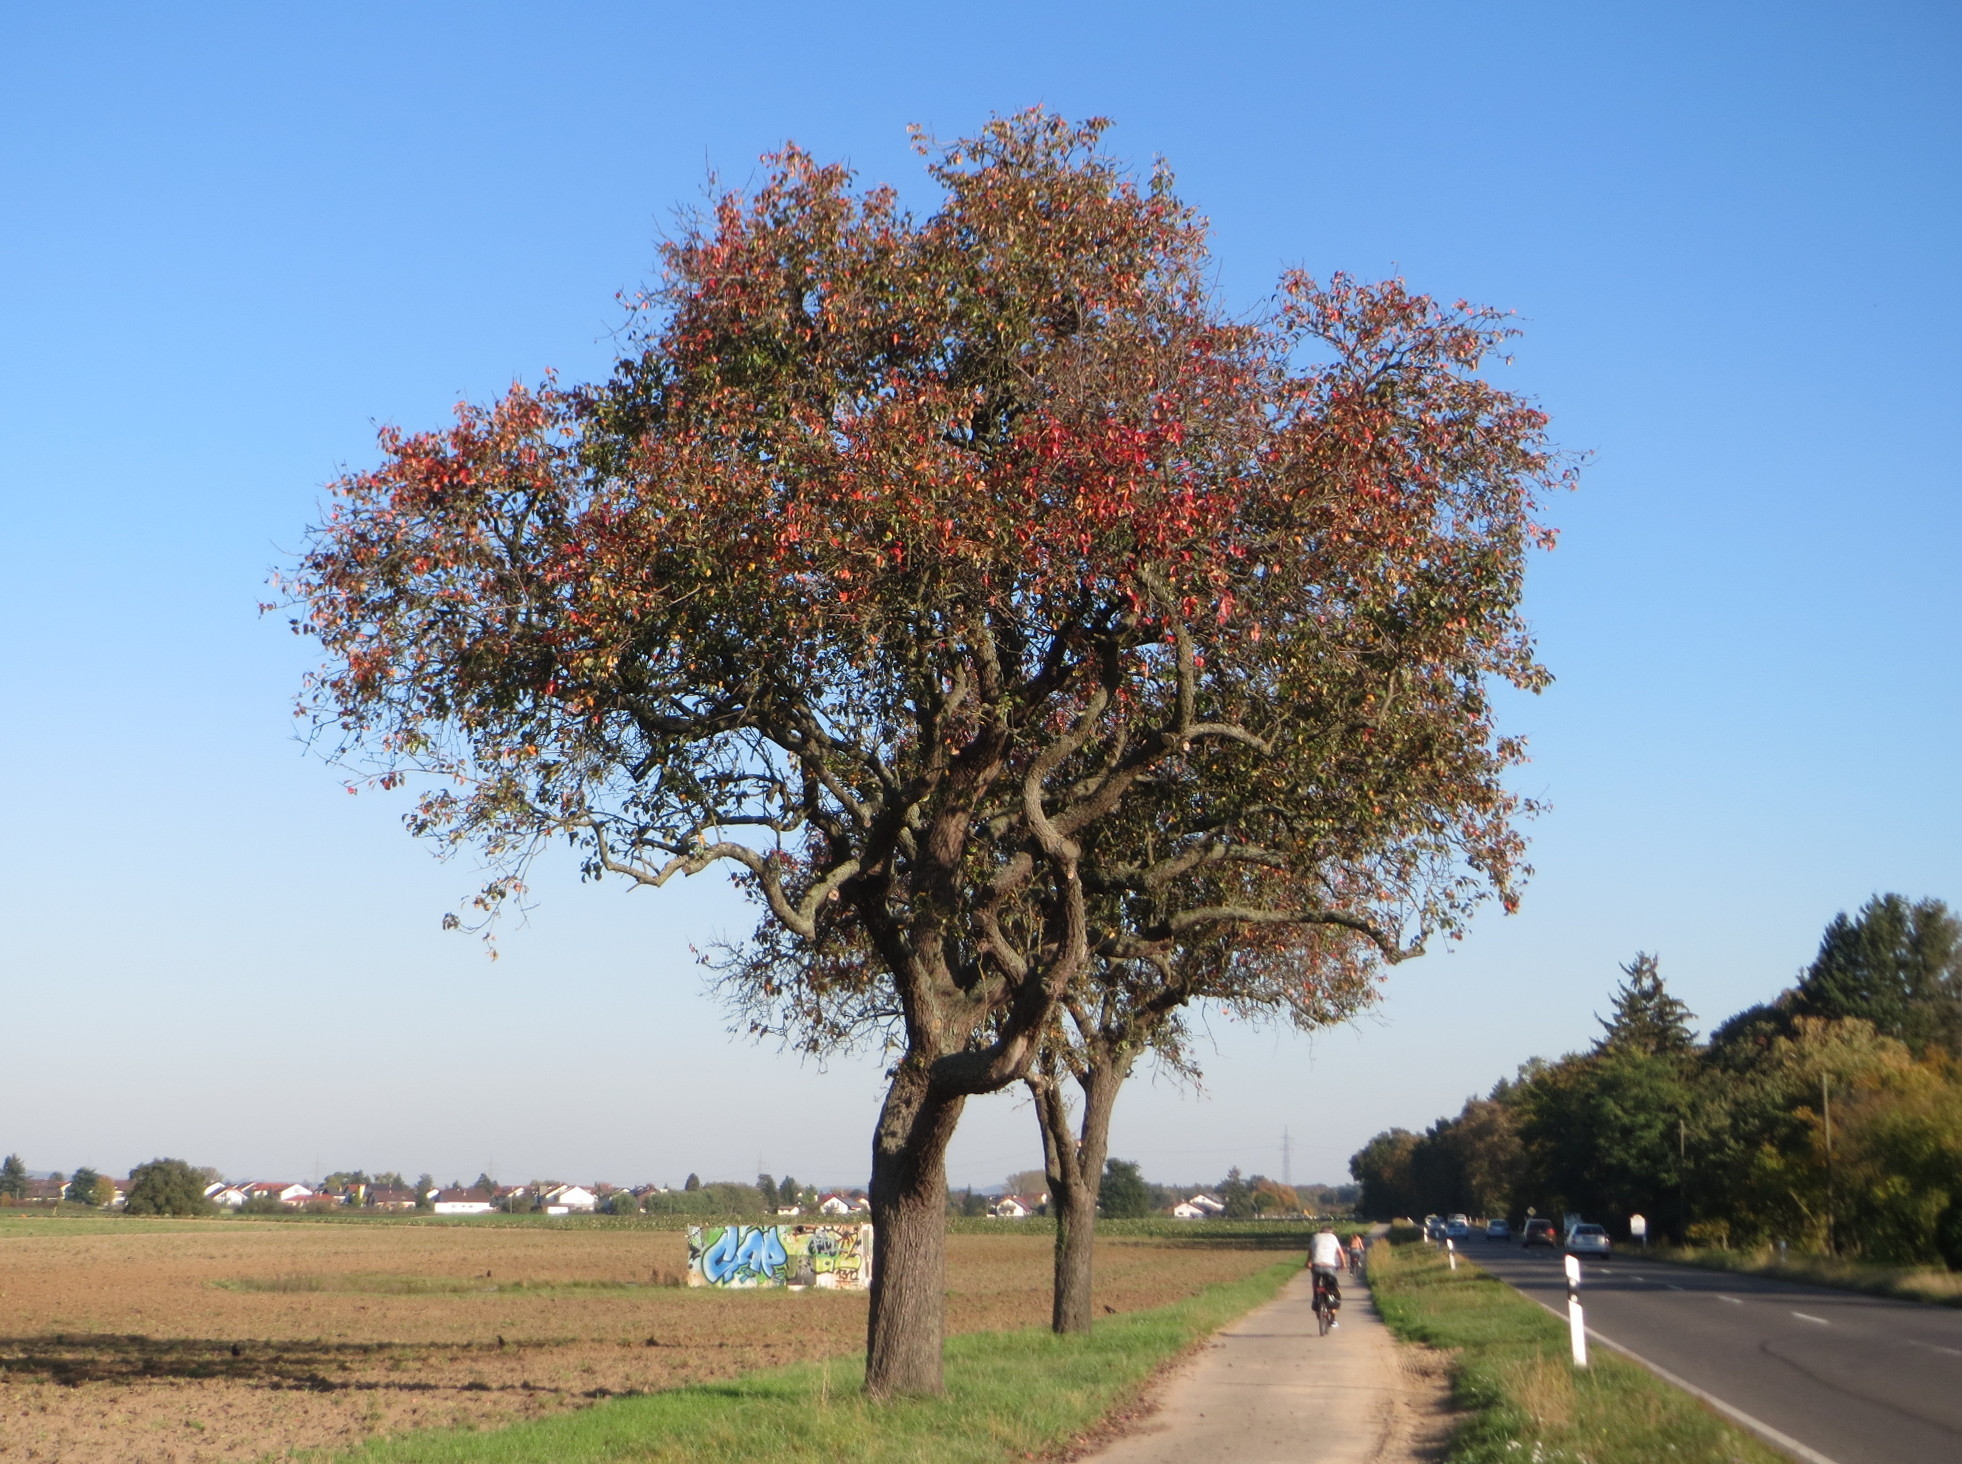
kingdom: Plantae
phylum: Tracheophyta
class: Magnoliopsida
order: Rosales
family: Rosaceae
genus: Pyrus
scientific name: Pyrus communis
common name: Pear
